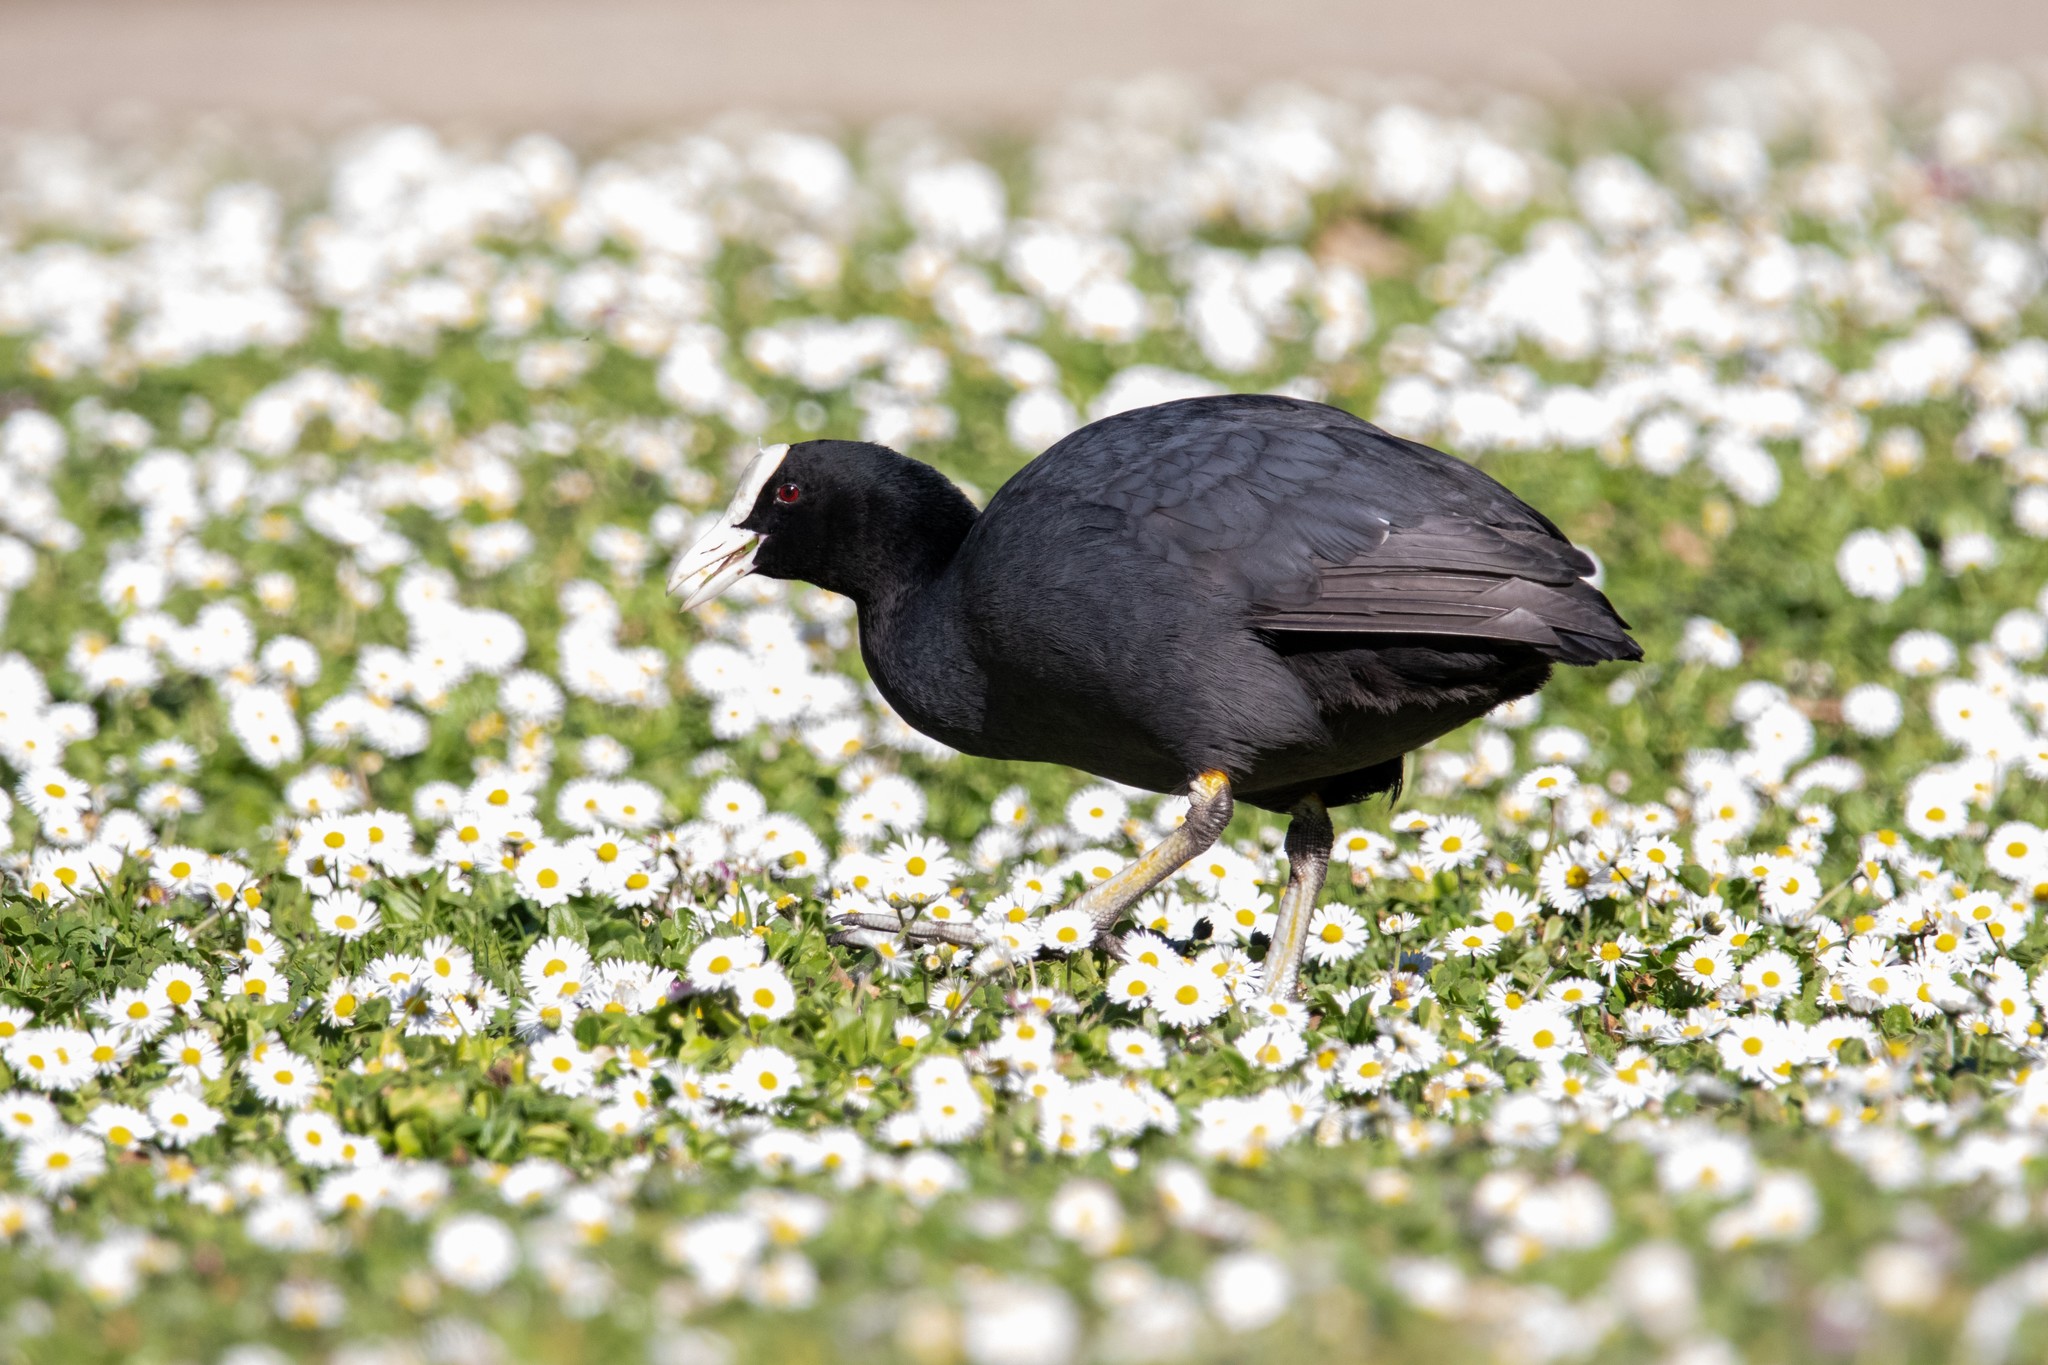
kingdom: Animalia
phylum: Chordata
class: Aves
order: Gruiformes
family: Rallidae
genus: Fulica
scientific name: Fulica atra
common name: Eurasian coot
